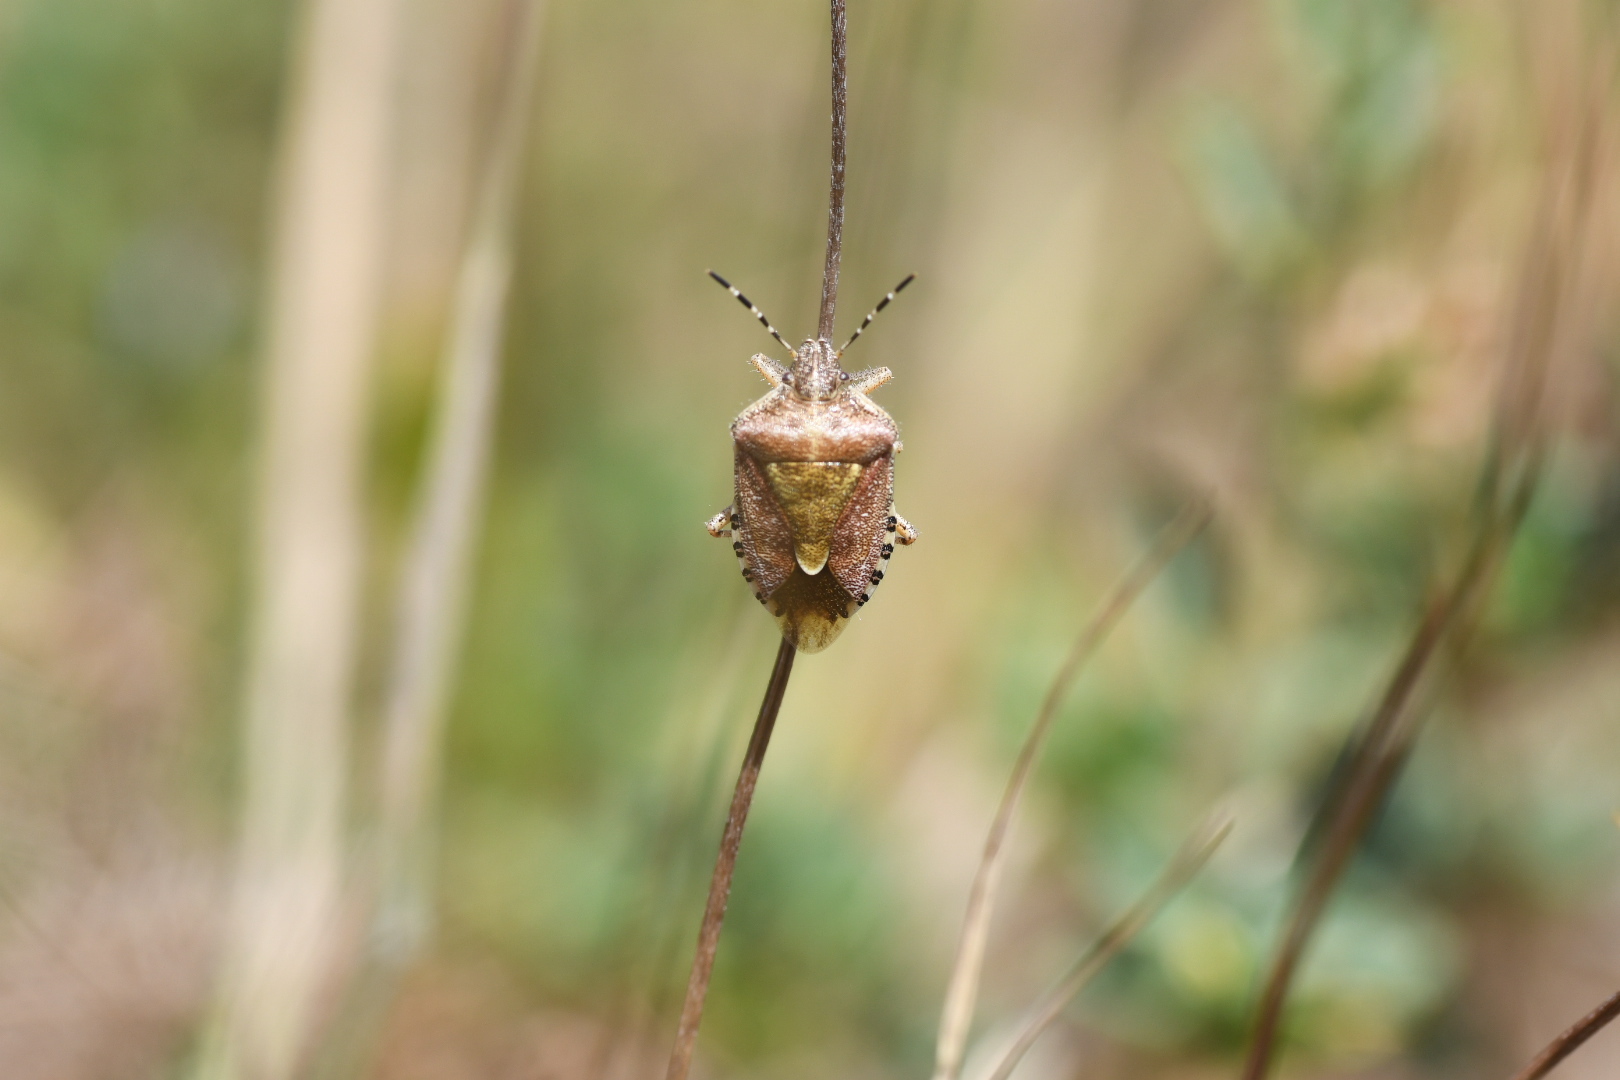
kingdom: Animalia
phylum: Arthropoda
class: Insecta
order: Hemiptera
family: Pentatomidae
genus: Dolycoris
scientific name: Dolycoris baccarum
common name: Sloe bug
